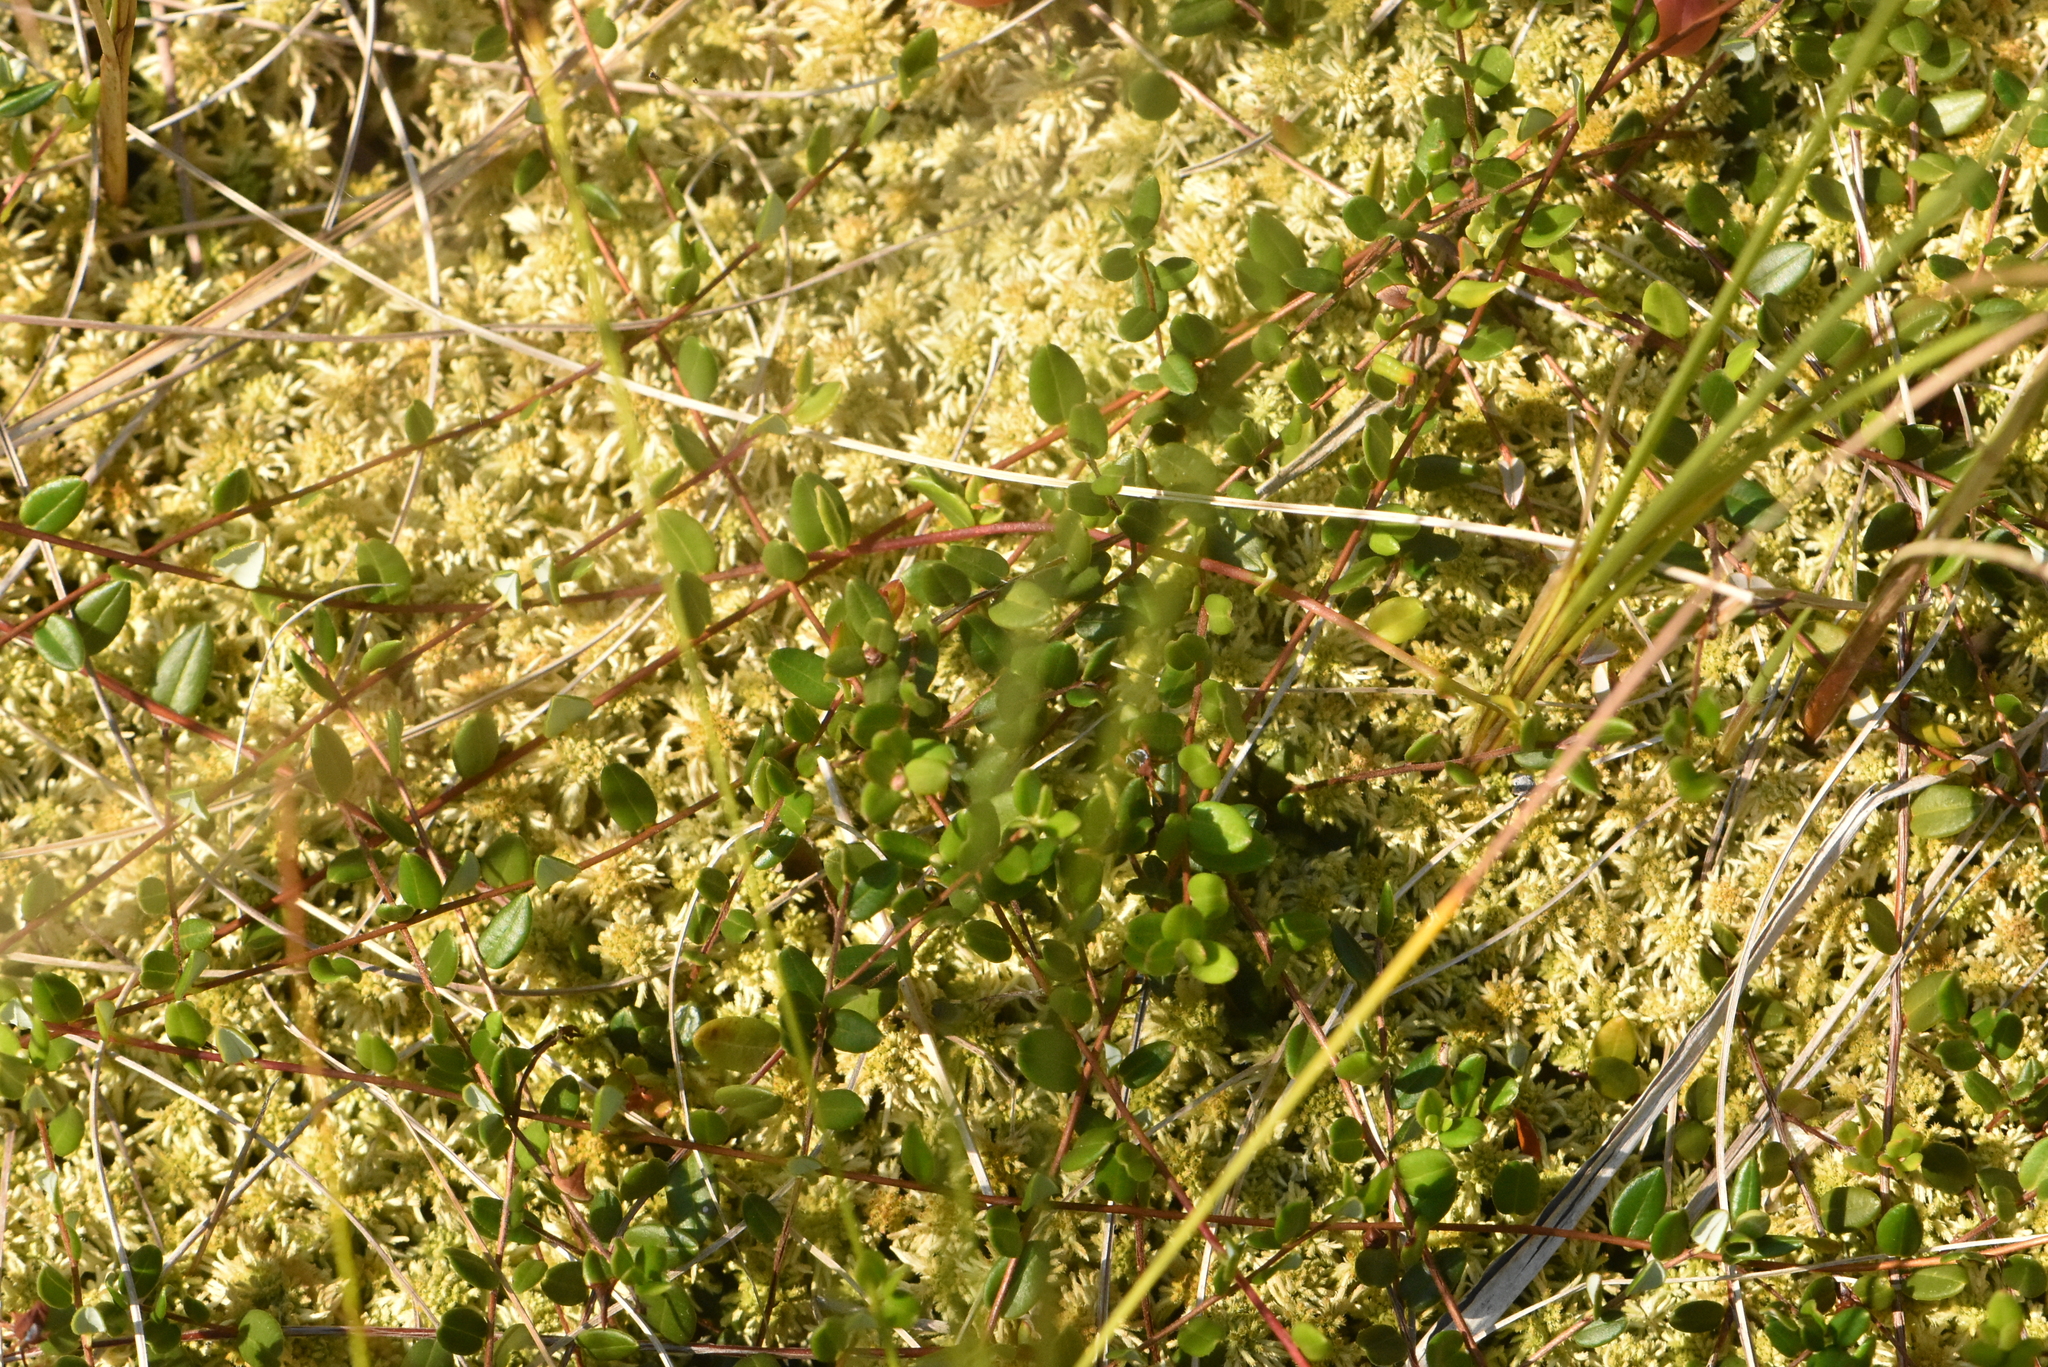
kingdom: Plantae
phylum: Tracheophyta
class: Magnoliopsida
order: Ericales
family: Ericaceae
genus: Vaccinium
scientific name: Vaccinium oxycoccos
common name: Cranberry
